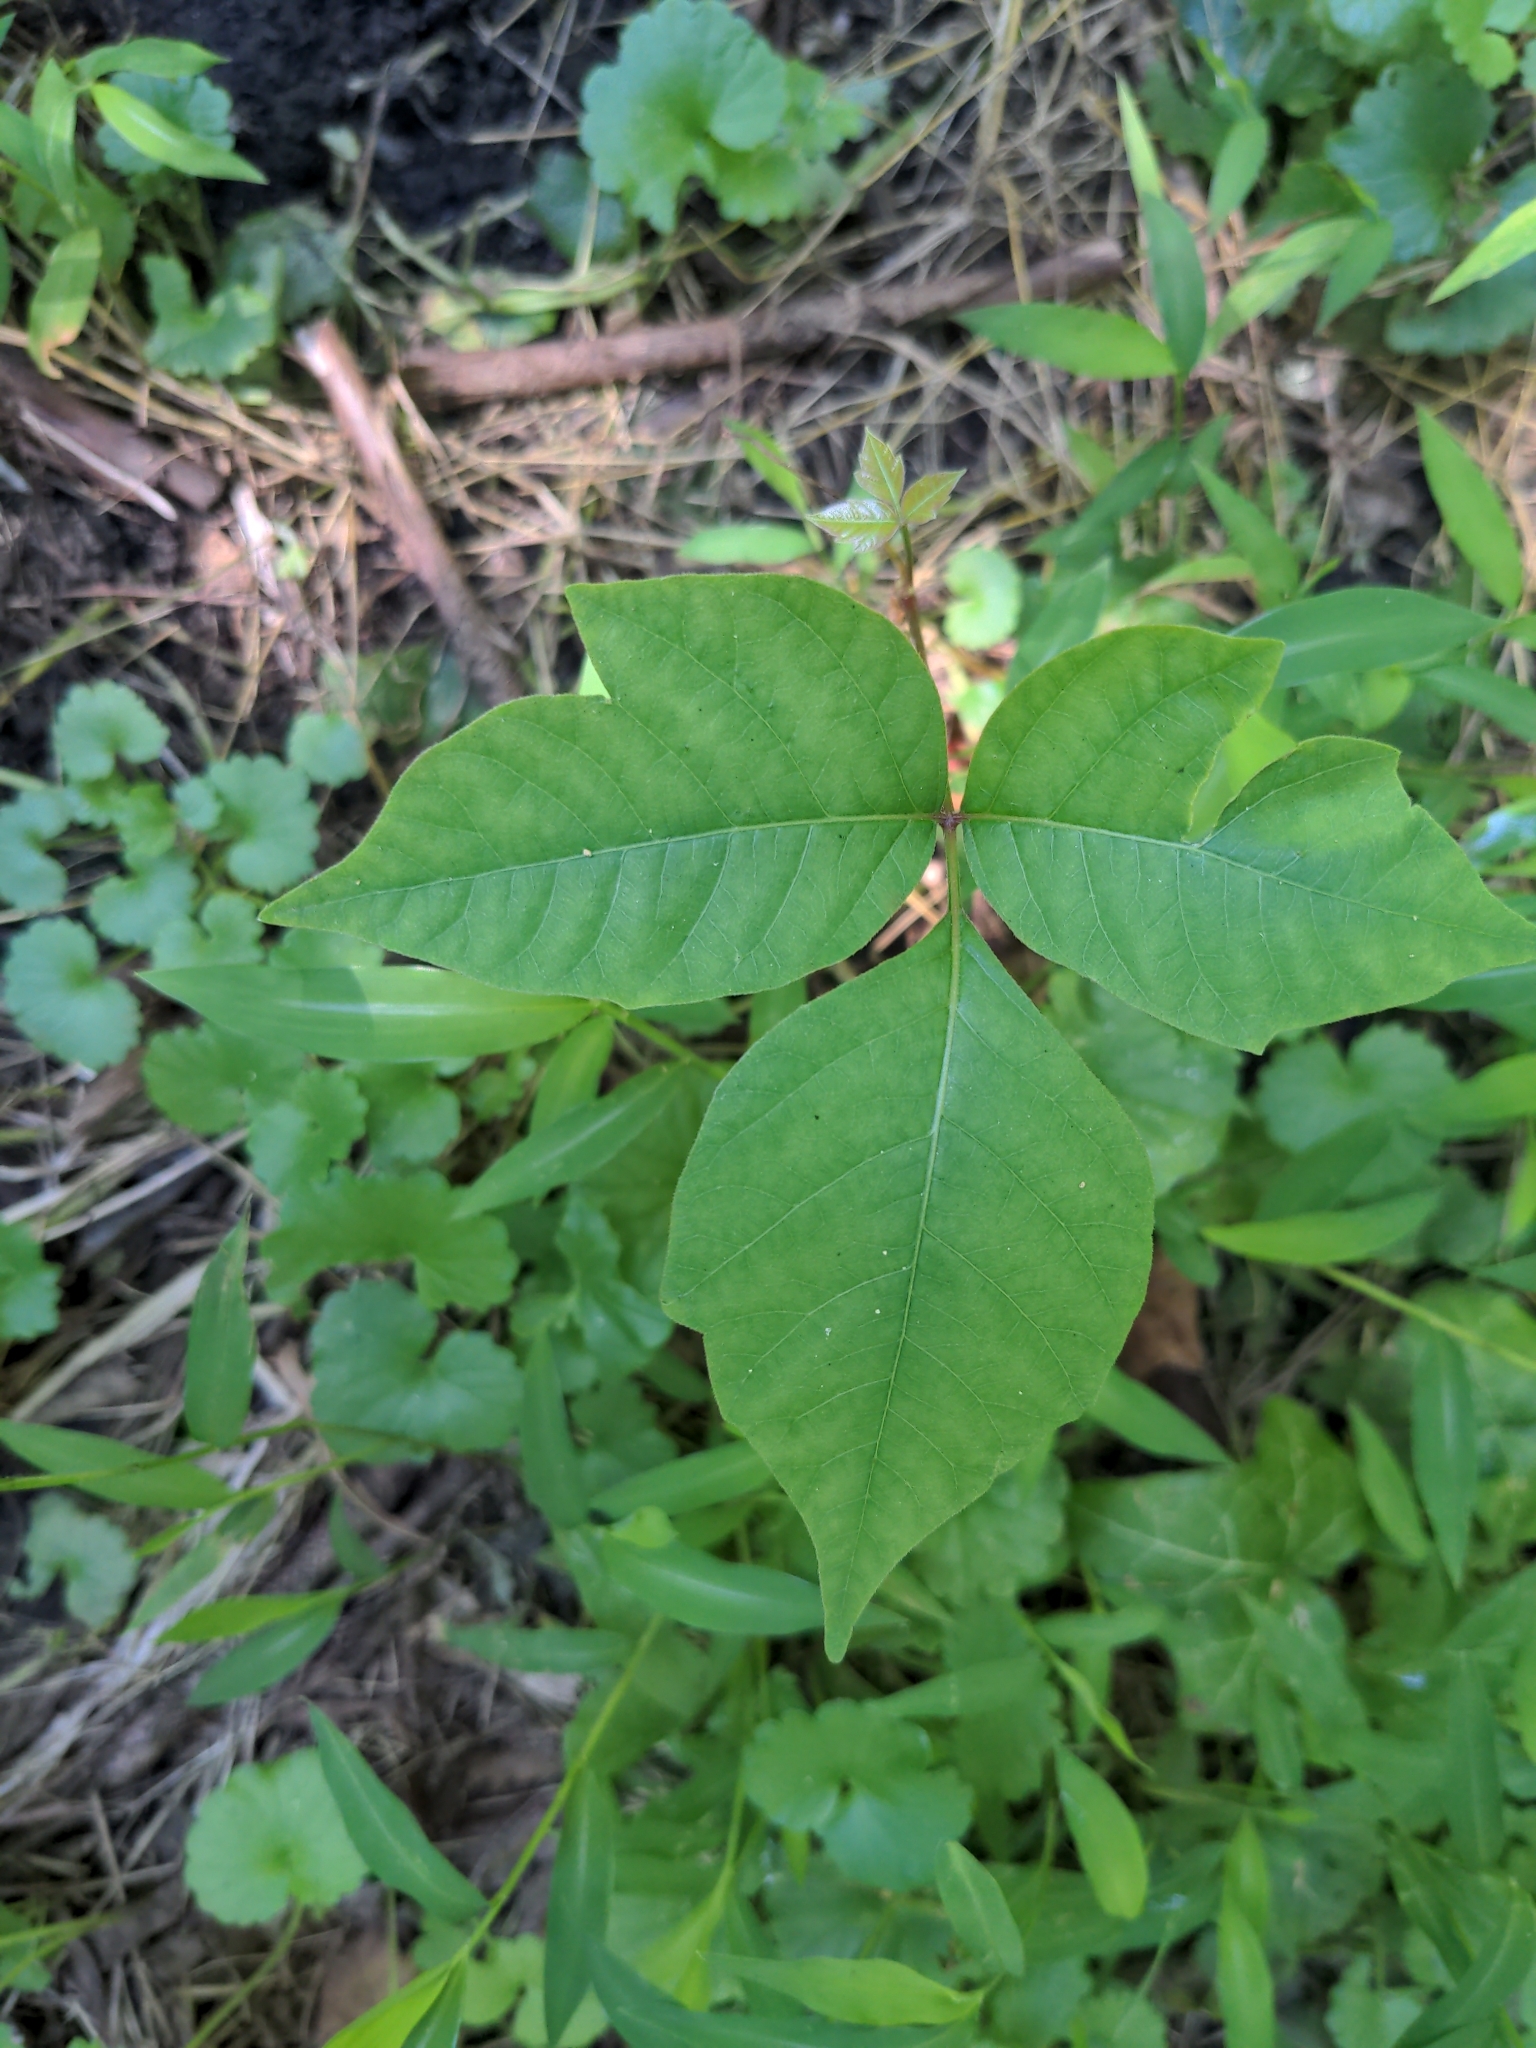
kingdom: Plantae
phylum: Tracheophyta
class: Magnoliopsida
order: Sapindales
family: Anacardiaceae
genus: Toxicodendron
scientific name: Toxicodendron radicans
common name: Poison ivy
